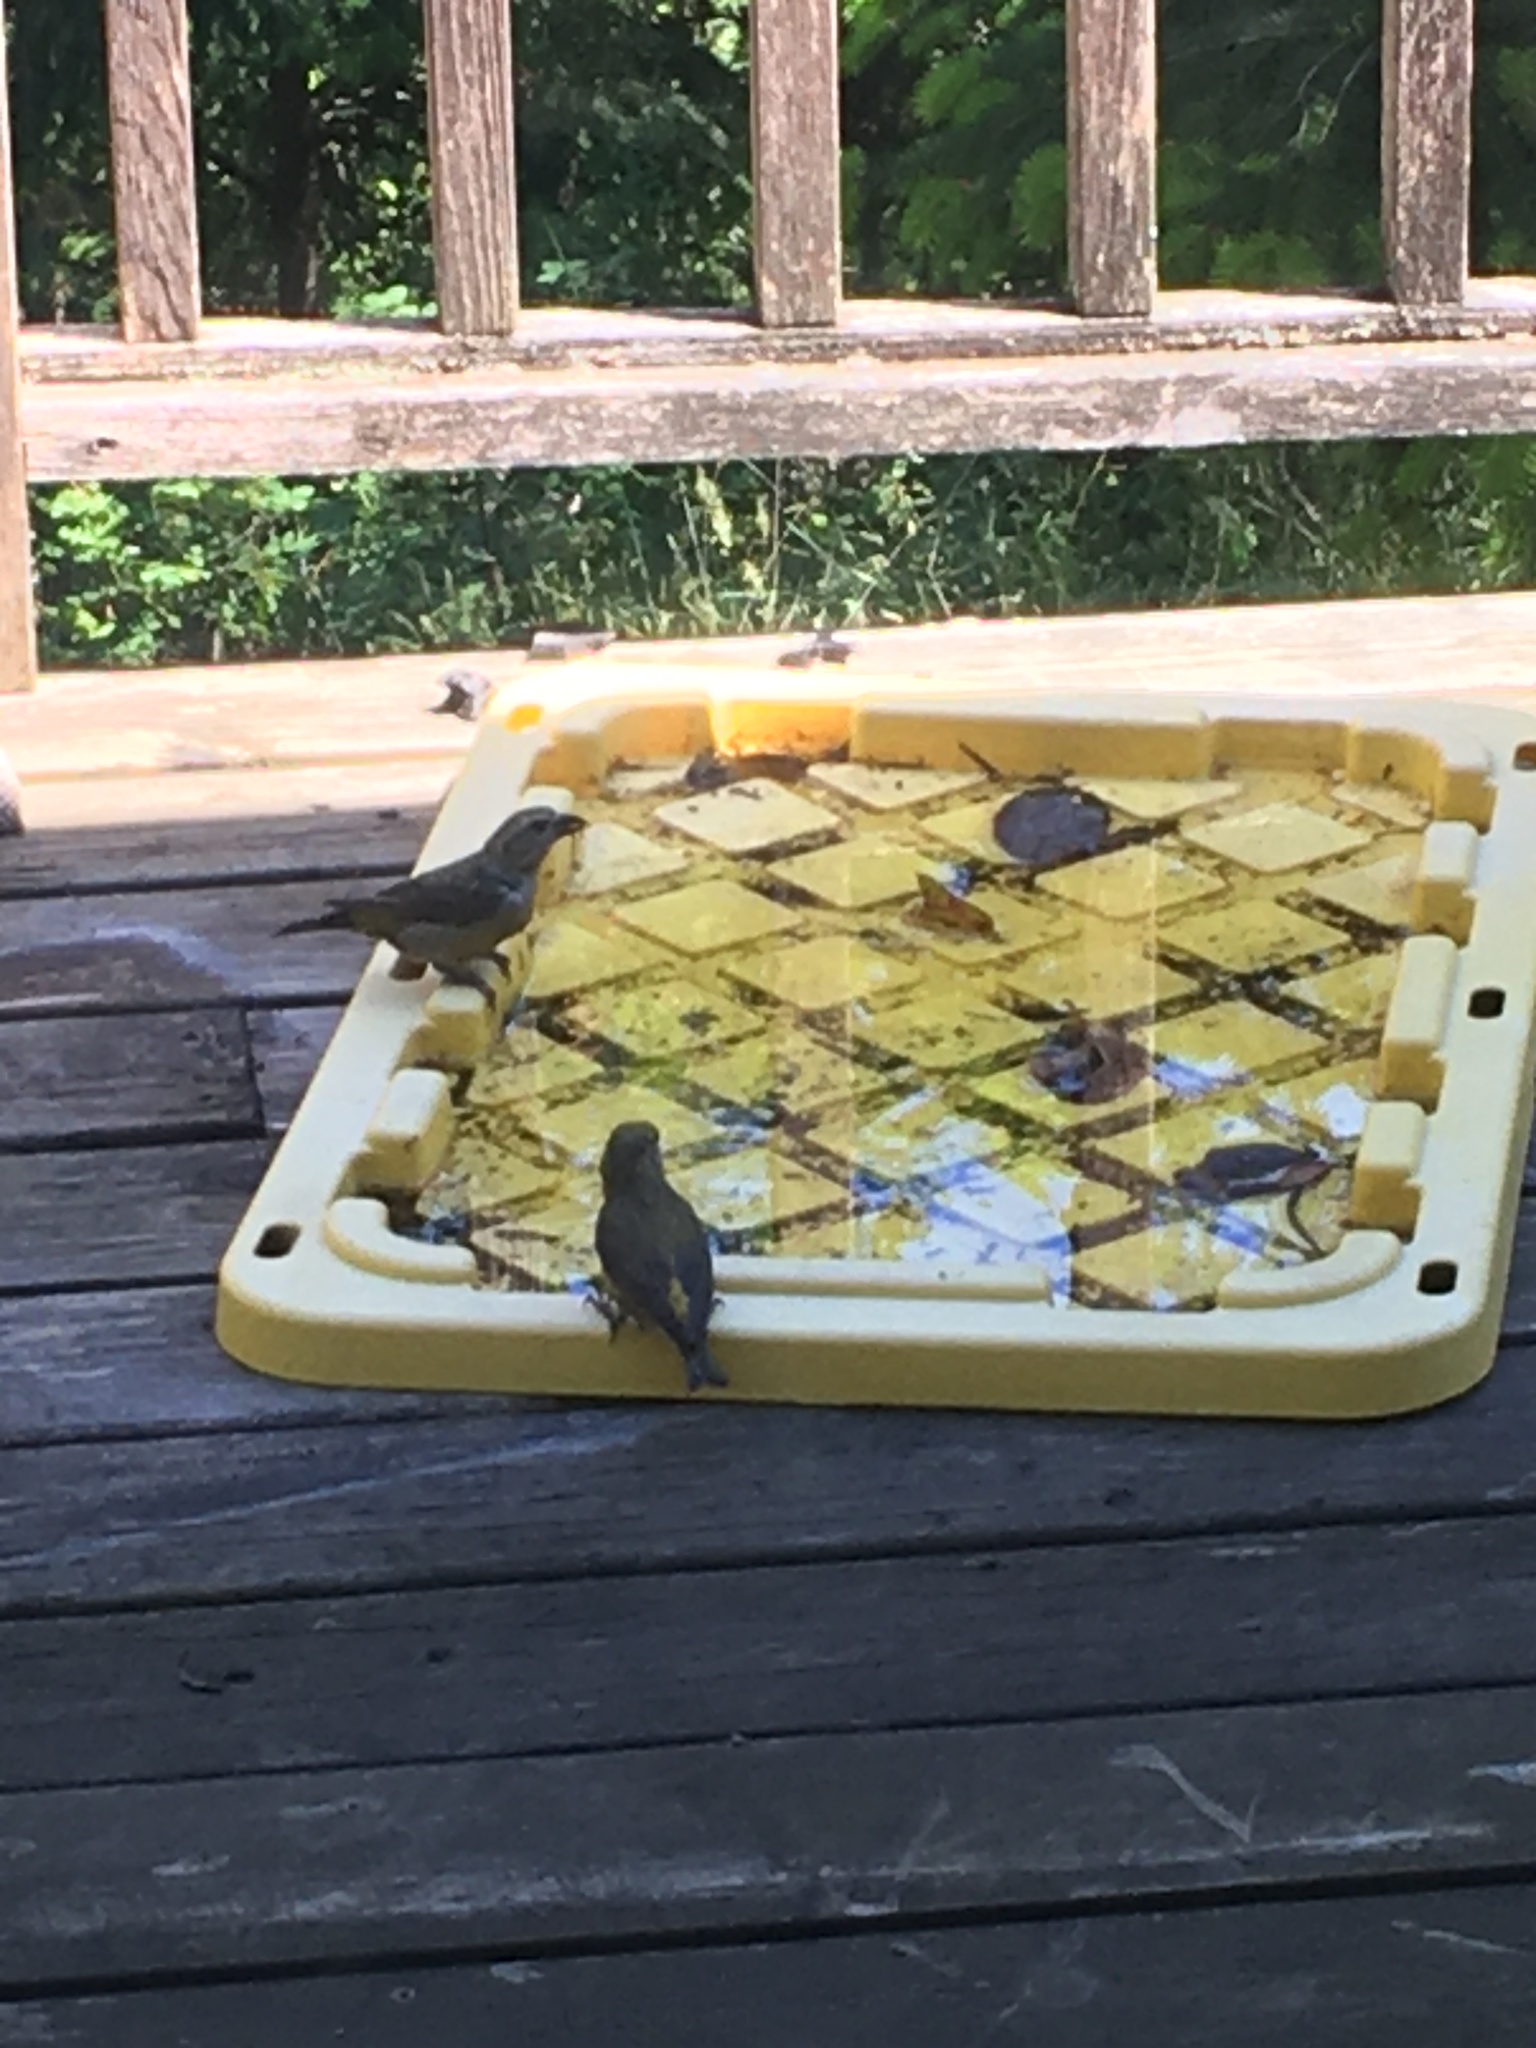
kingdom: Animalia
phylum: Chordata
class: Aves
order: Passeriformes
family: Fringillidae
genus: Loxia
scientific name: Loxia curvirostra
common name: Red crossbill
